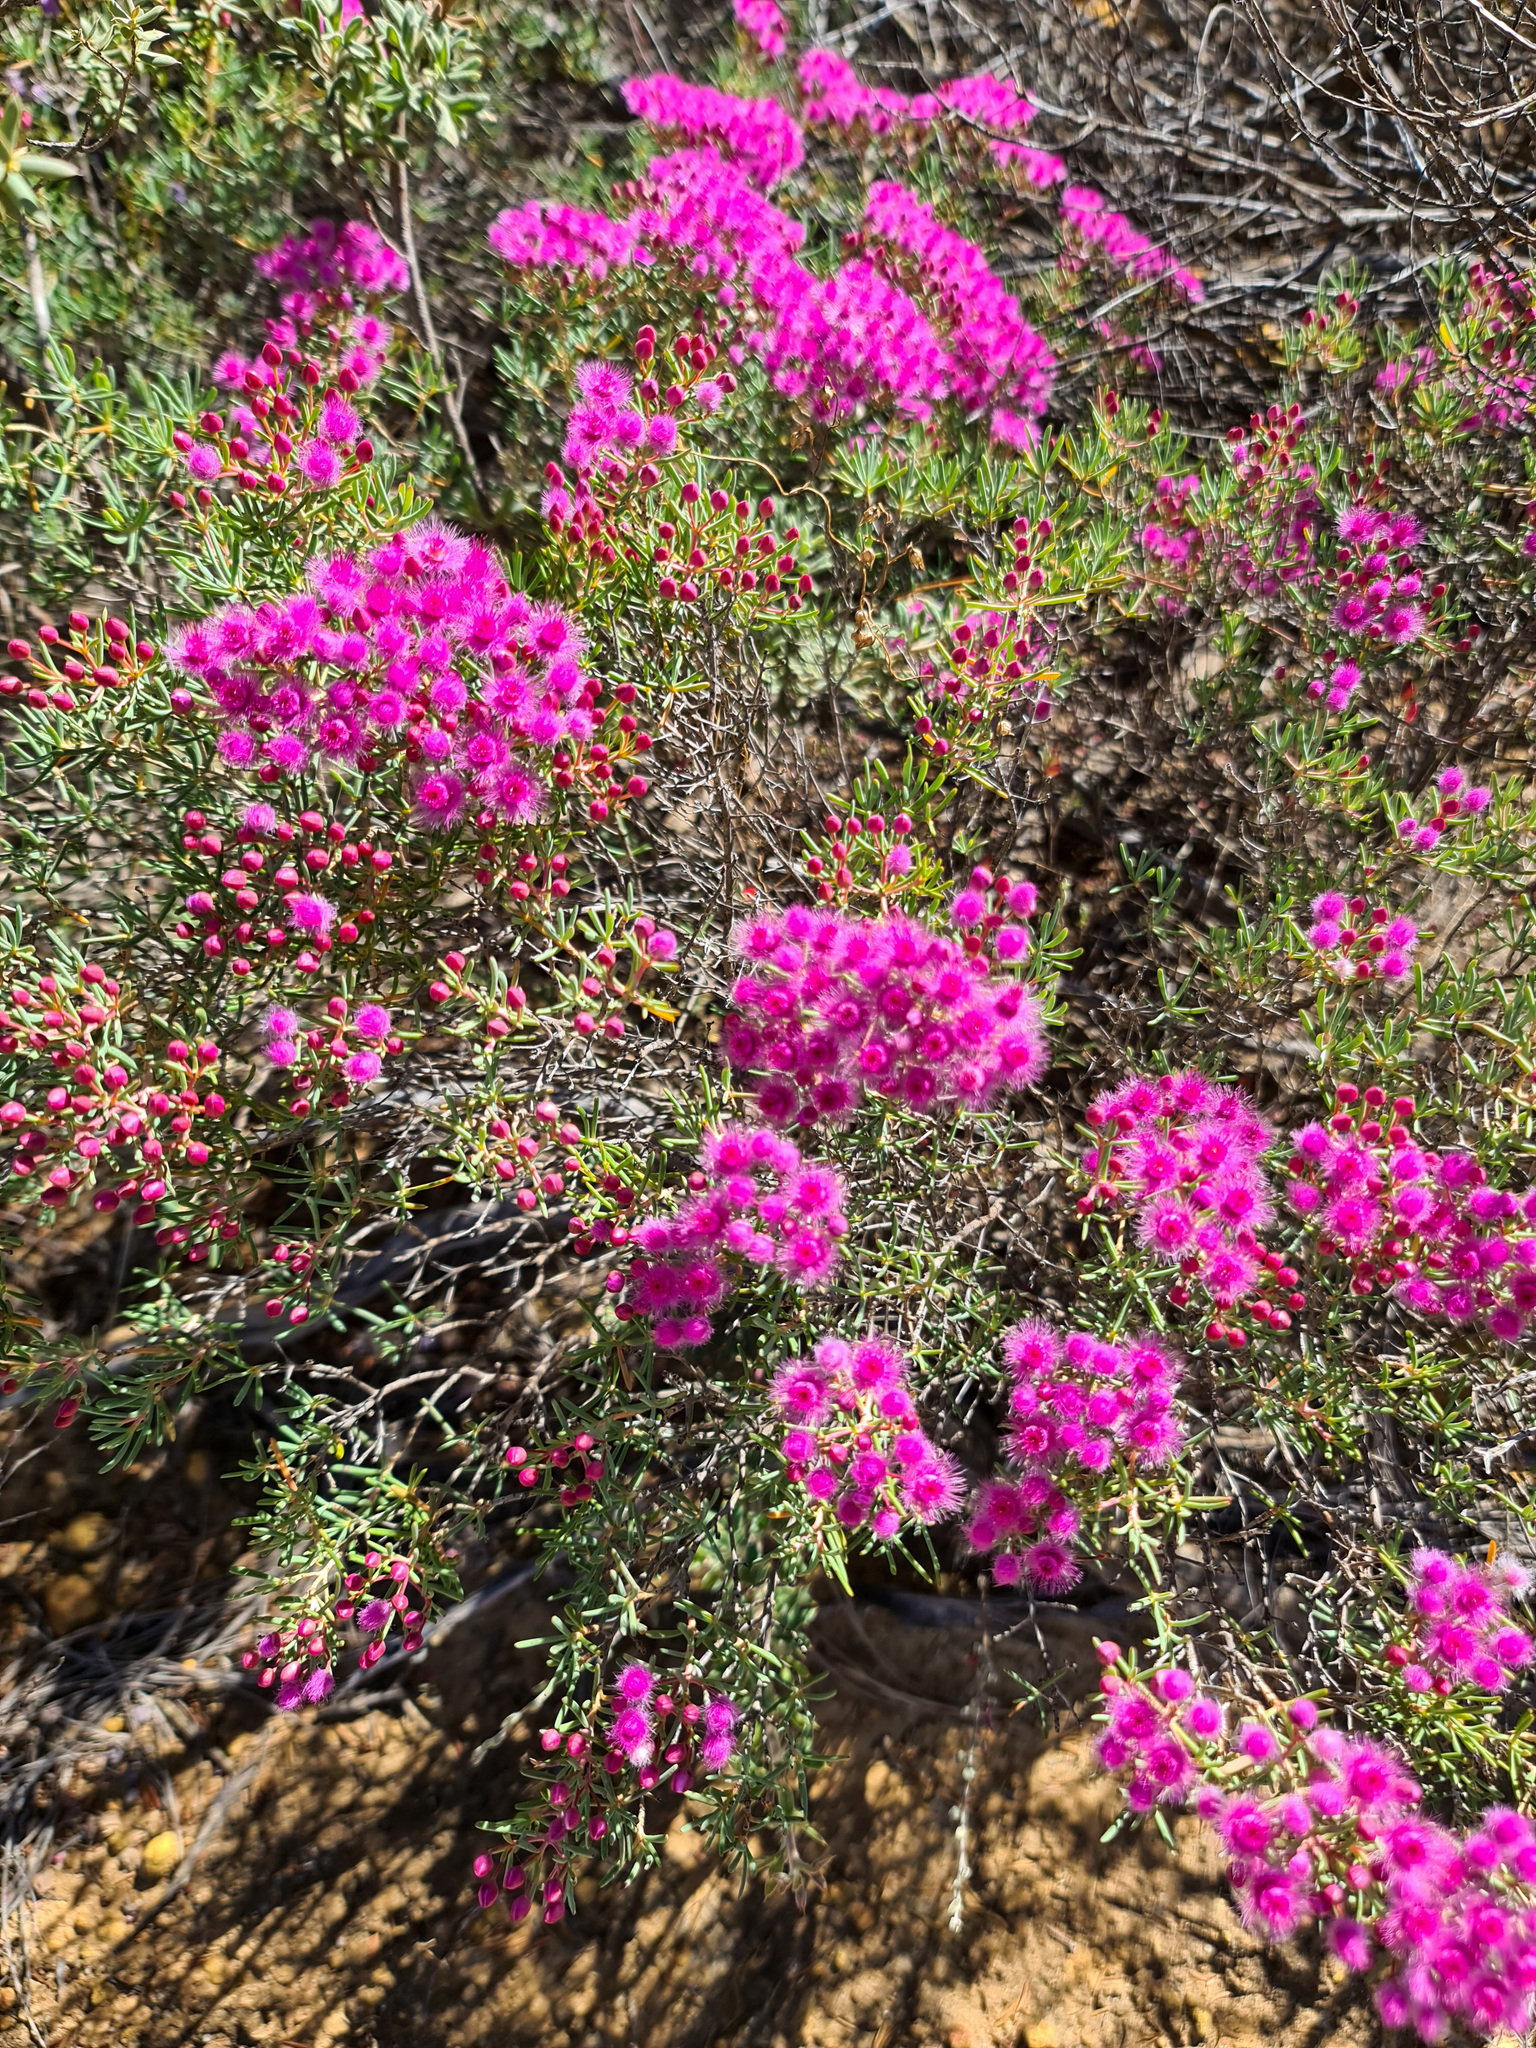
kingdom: Plantae
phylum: Tracheophyta
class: Magnoliopsida
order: Myrtales
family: Myrtaceae
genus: Verticordia
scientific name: Verticordia monadelpha
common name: Woolly feather-flower
